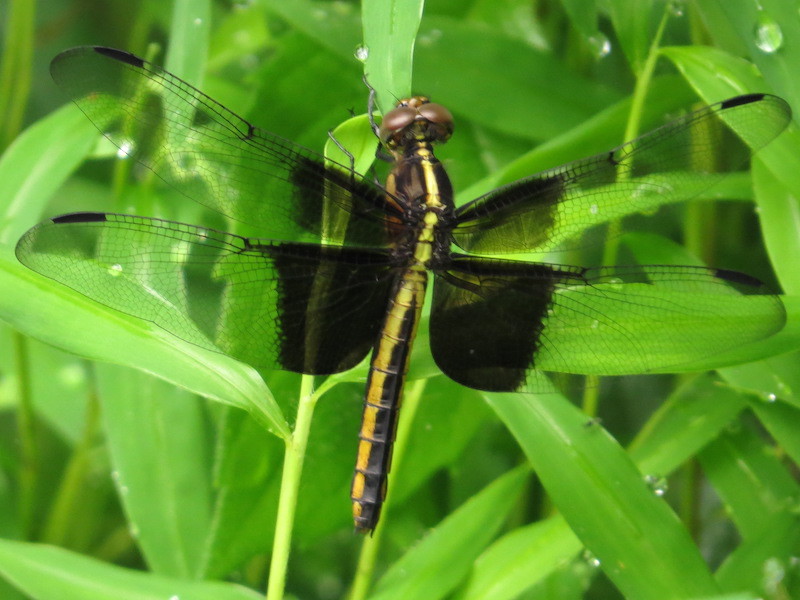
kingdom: Animalia
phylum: Arthropoda
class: Insecta
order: Odonata
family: Libellulidae
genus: Libellula
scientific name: Libellula luctuosa
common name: Widow skimmer
